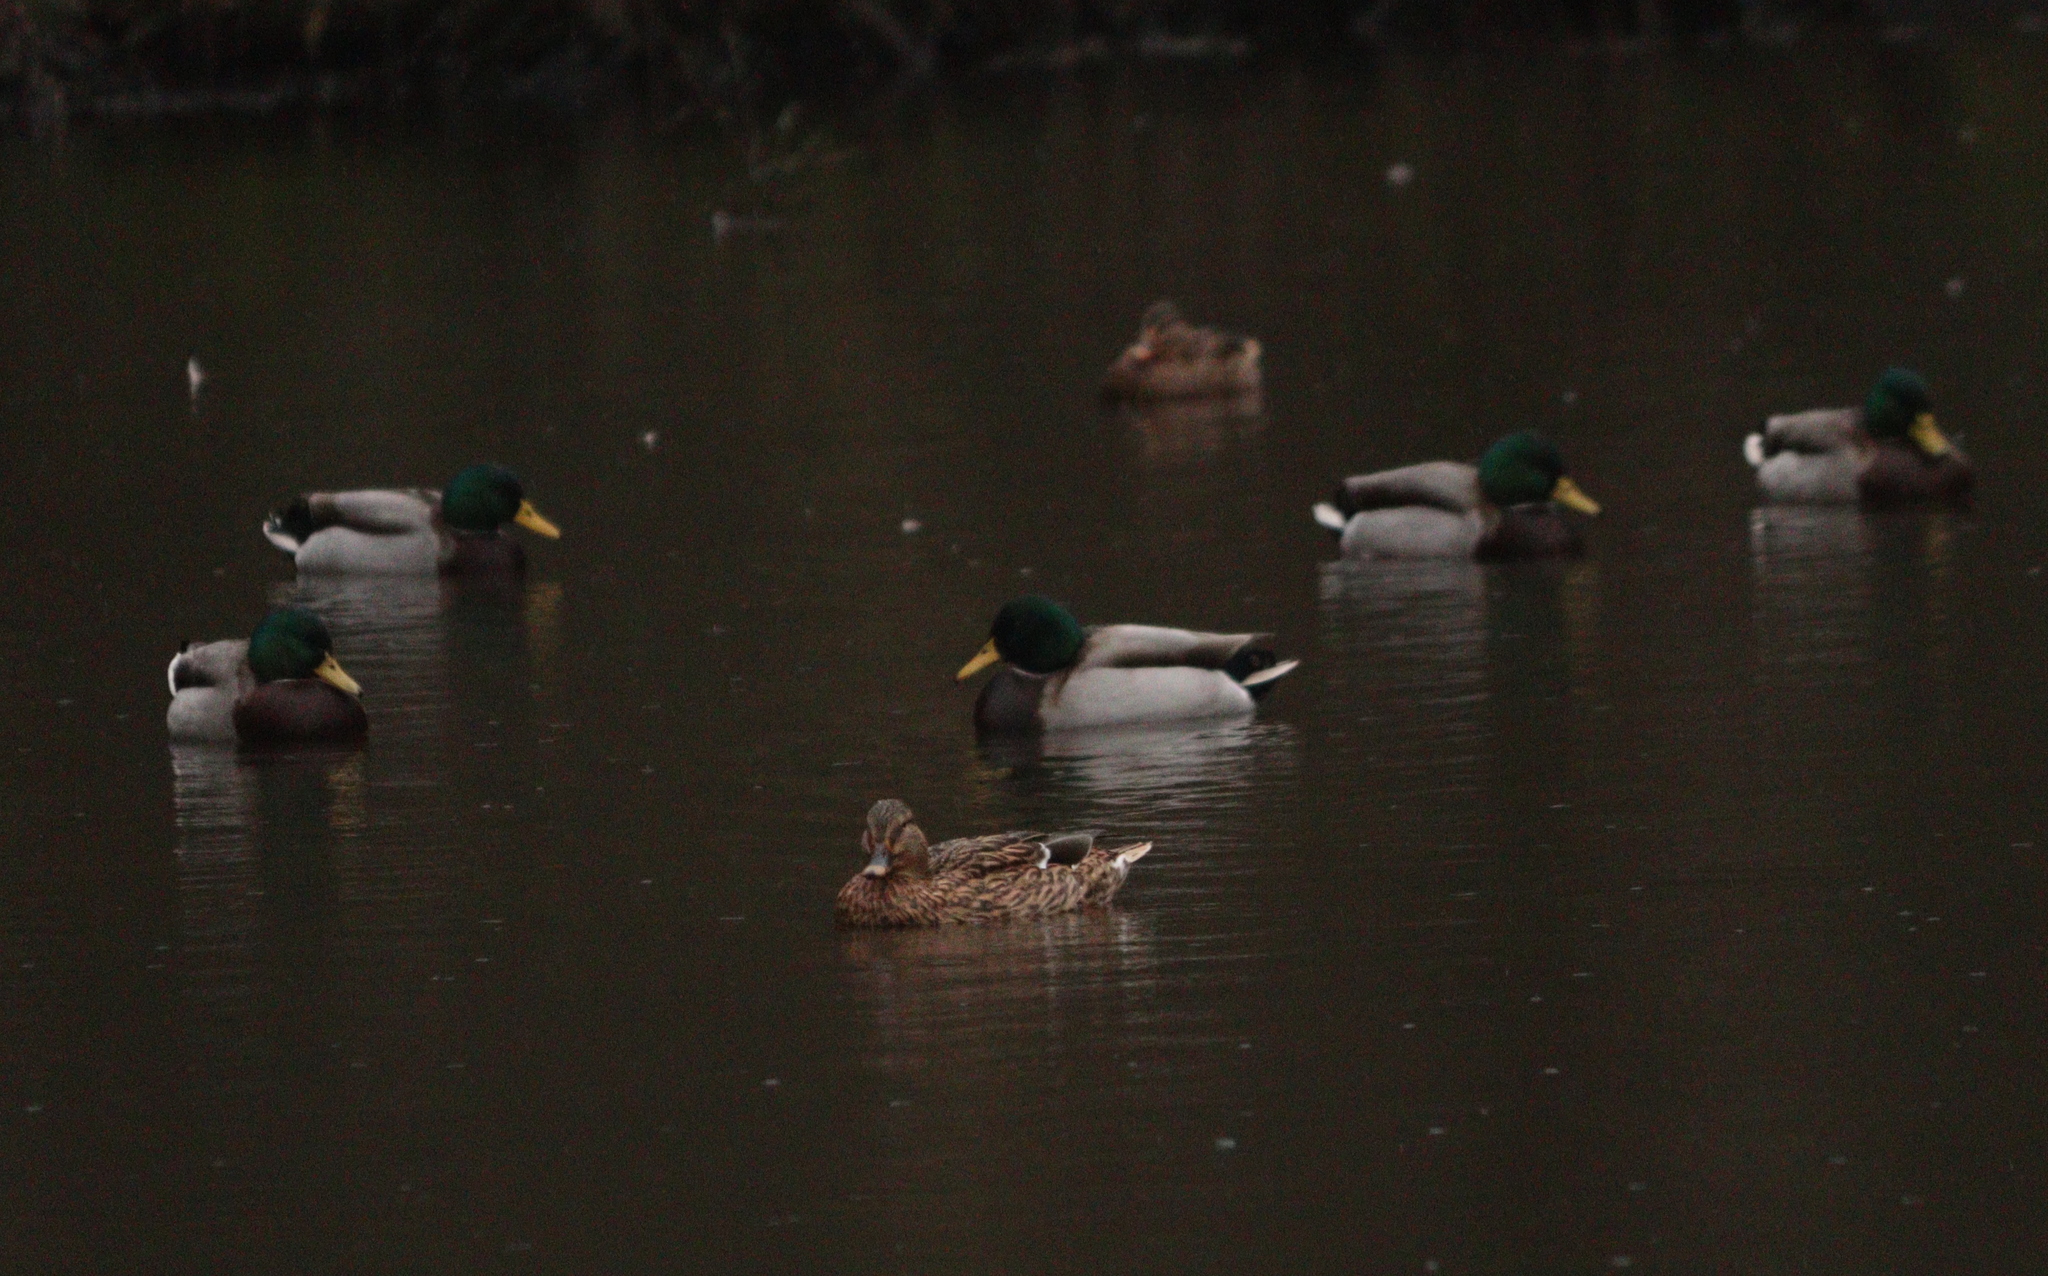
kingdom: Animalia
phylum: Chordata
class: Aves
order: Anseriformes
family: Anatidae
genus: Anas
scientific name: Anas platyrhynchos
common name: Mallard
